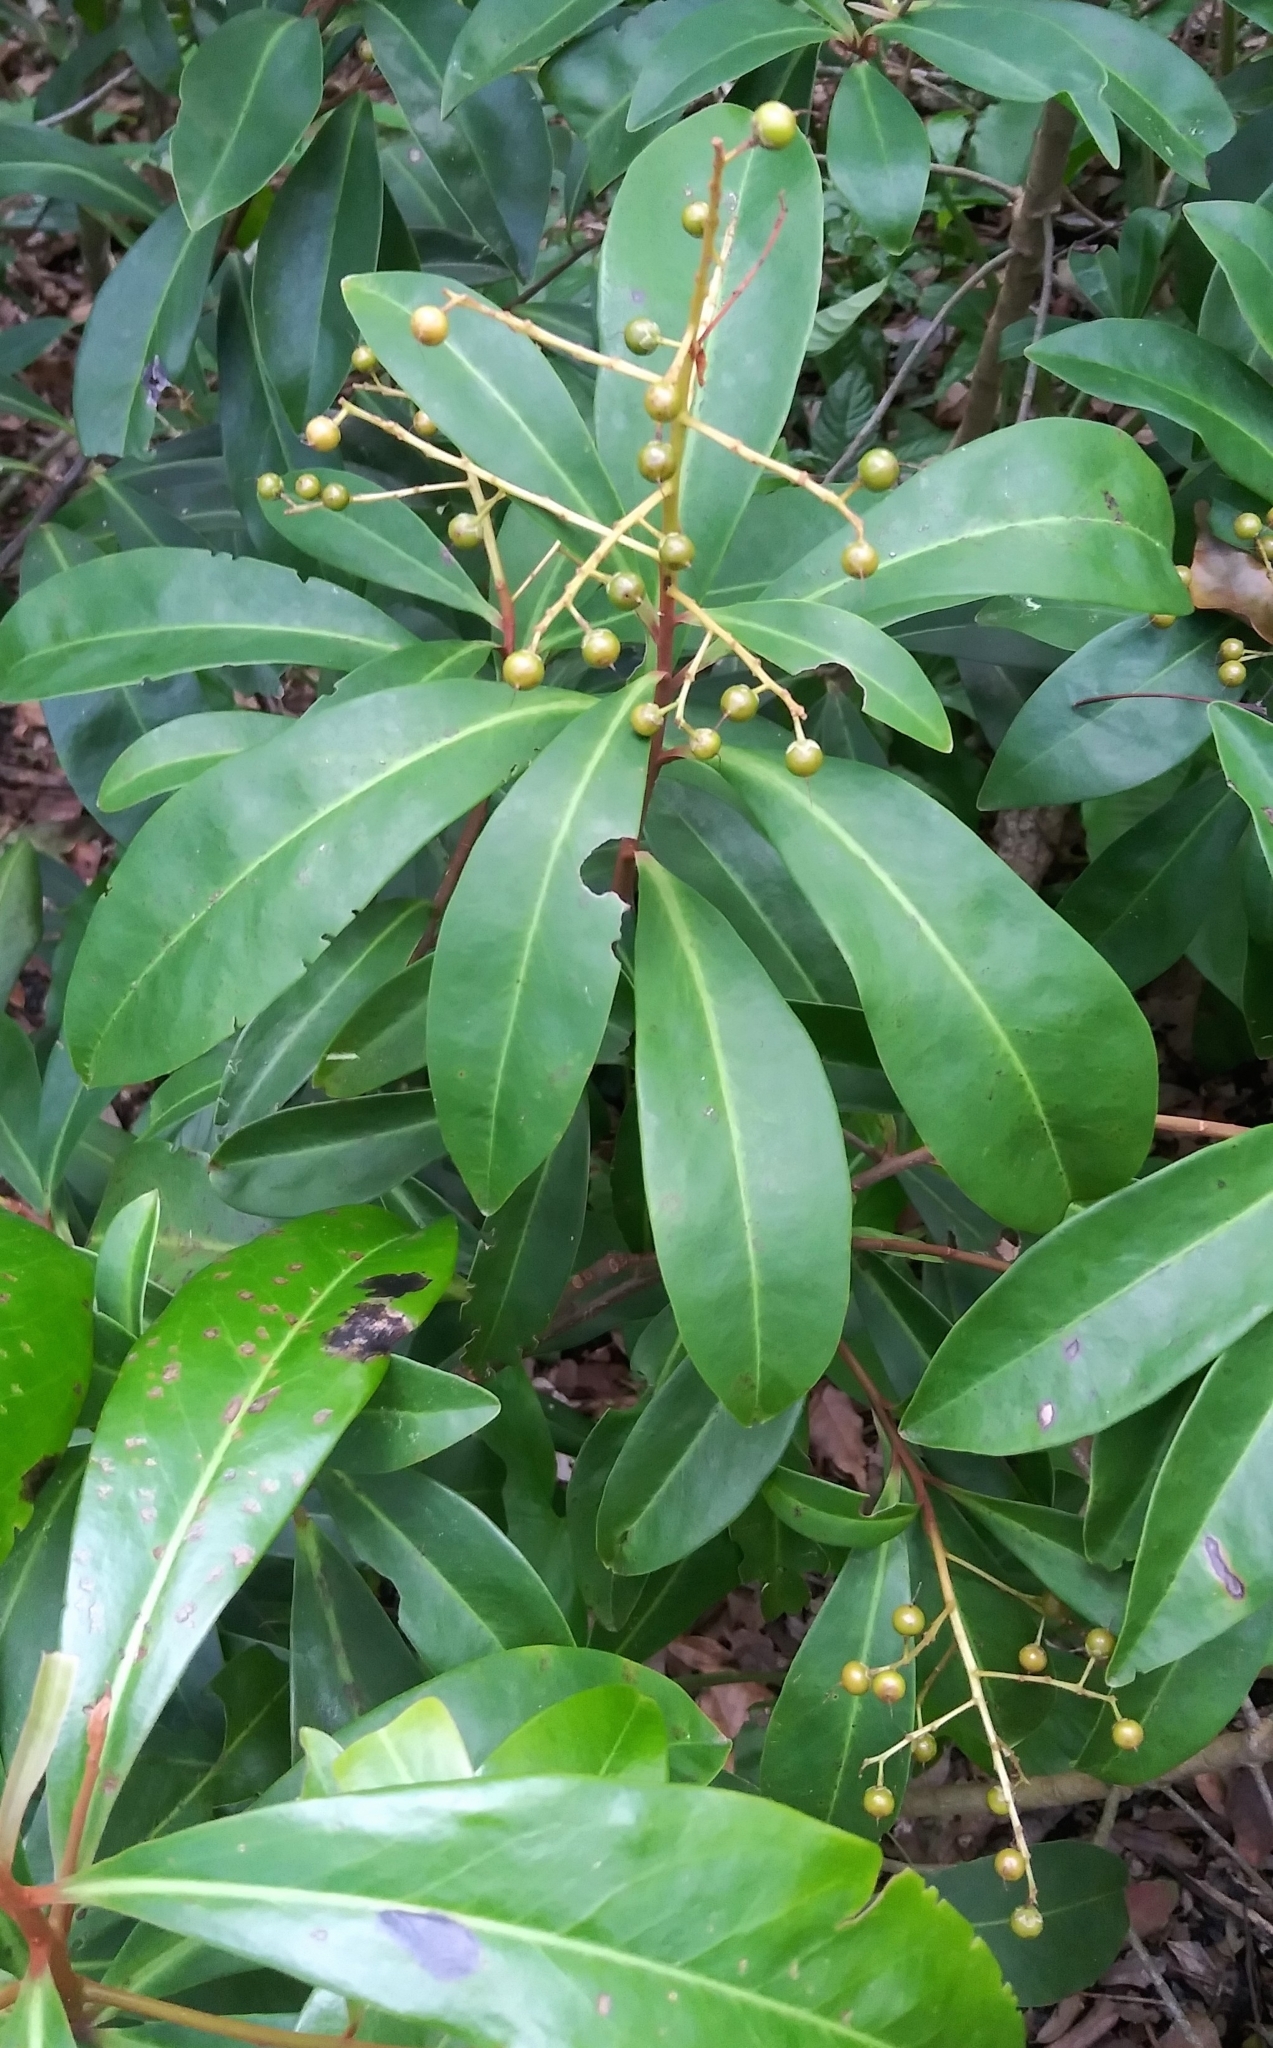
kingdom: Plantae
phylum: Tracheophyta
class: Magnoliopsida
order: Ericales
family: Primulaceae
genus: Ardisia
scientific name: Ardisia escallonioides
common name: Island marlberry
